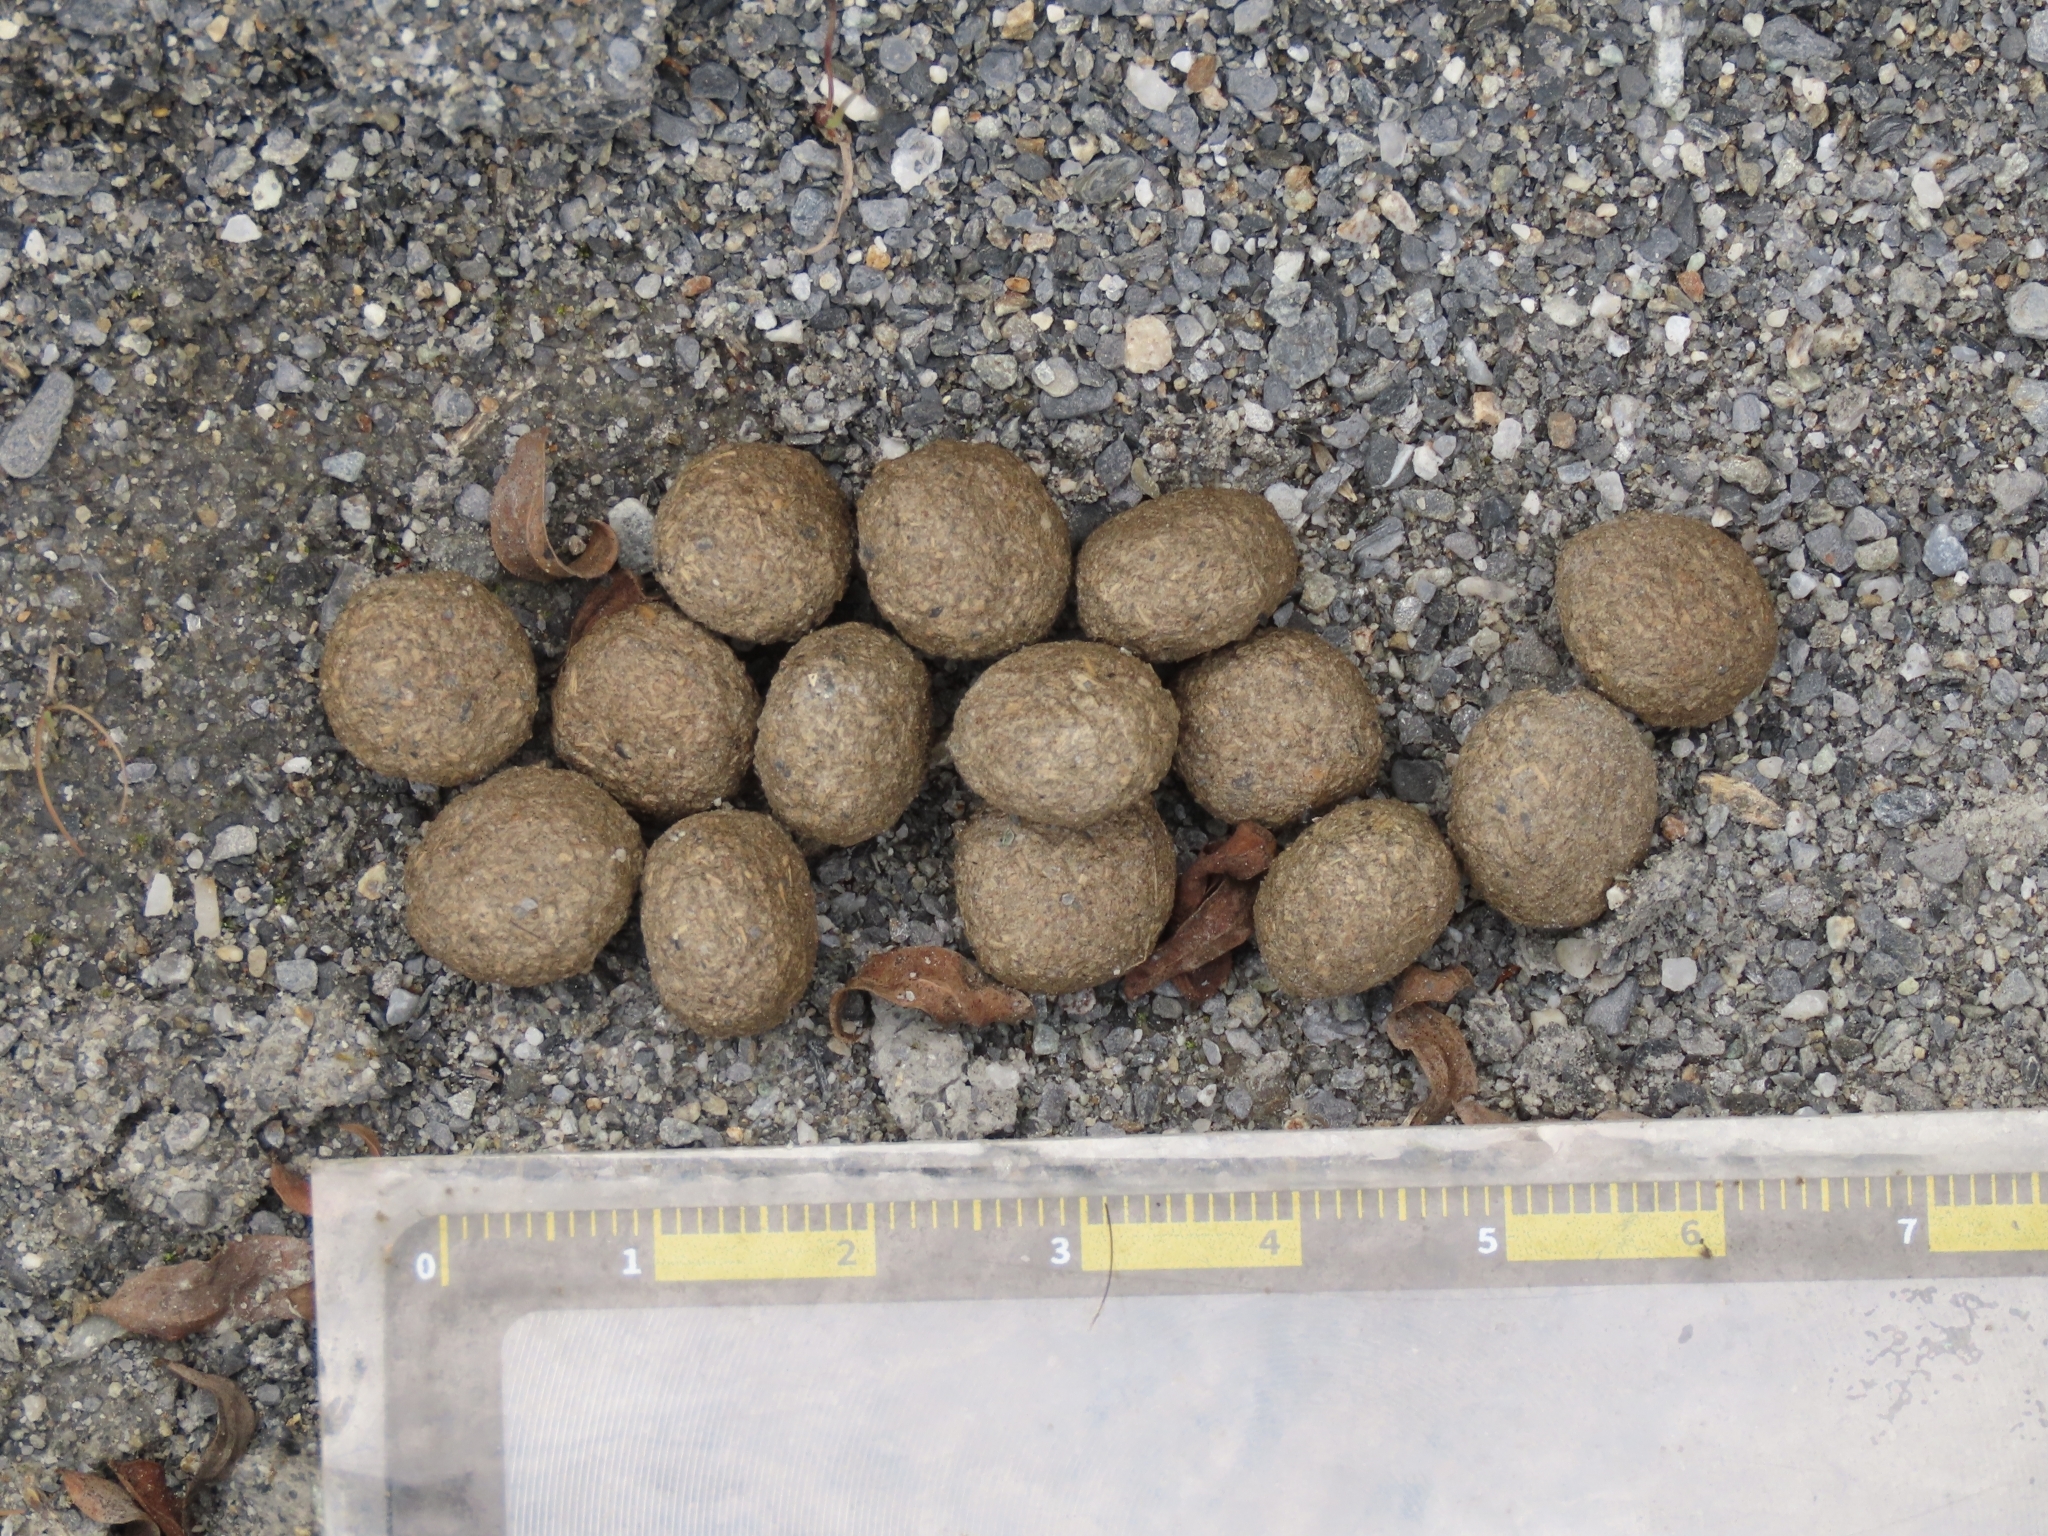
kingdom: Animalia
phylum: Chordata
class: Mammalia
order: Lagomorpha
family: Leporidae
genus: Lepus
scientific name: Lepus sinensis
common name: Chinese hare
